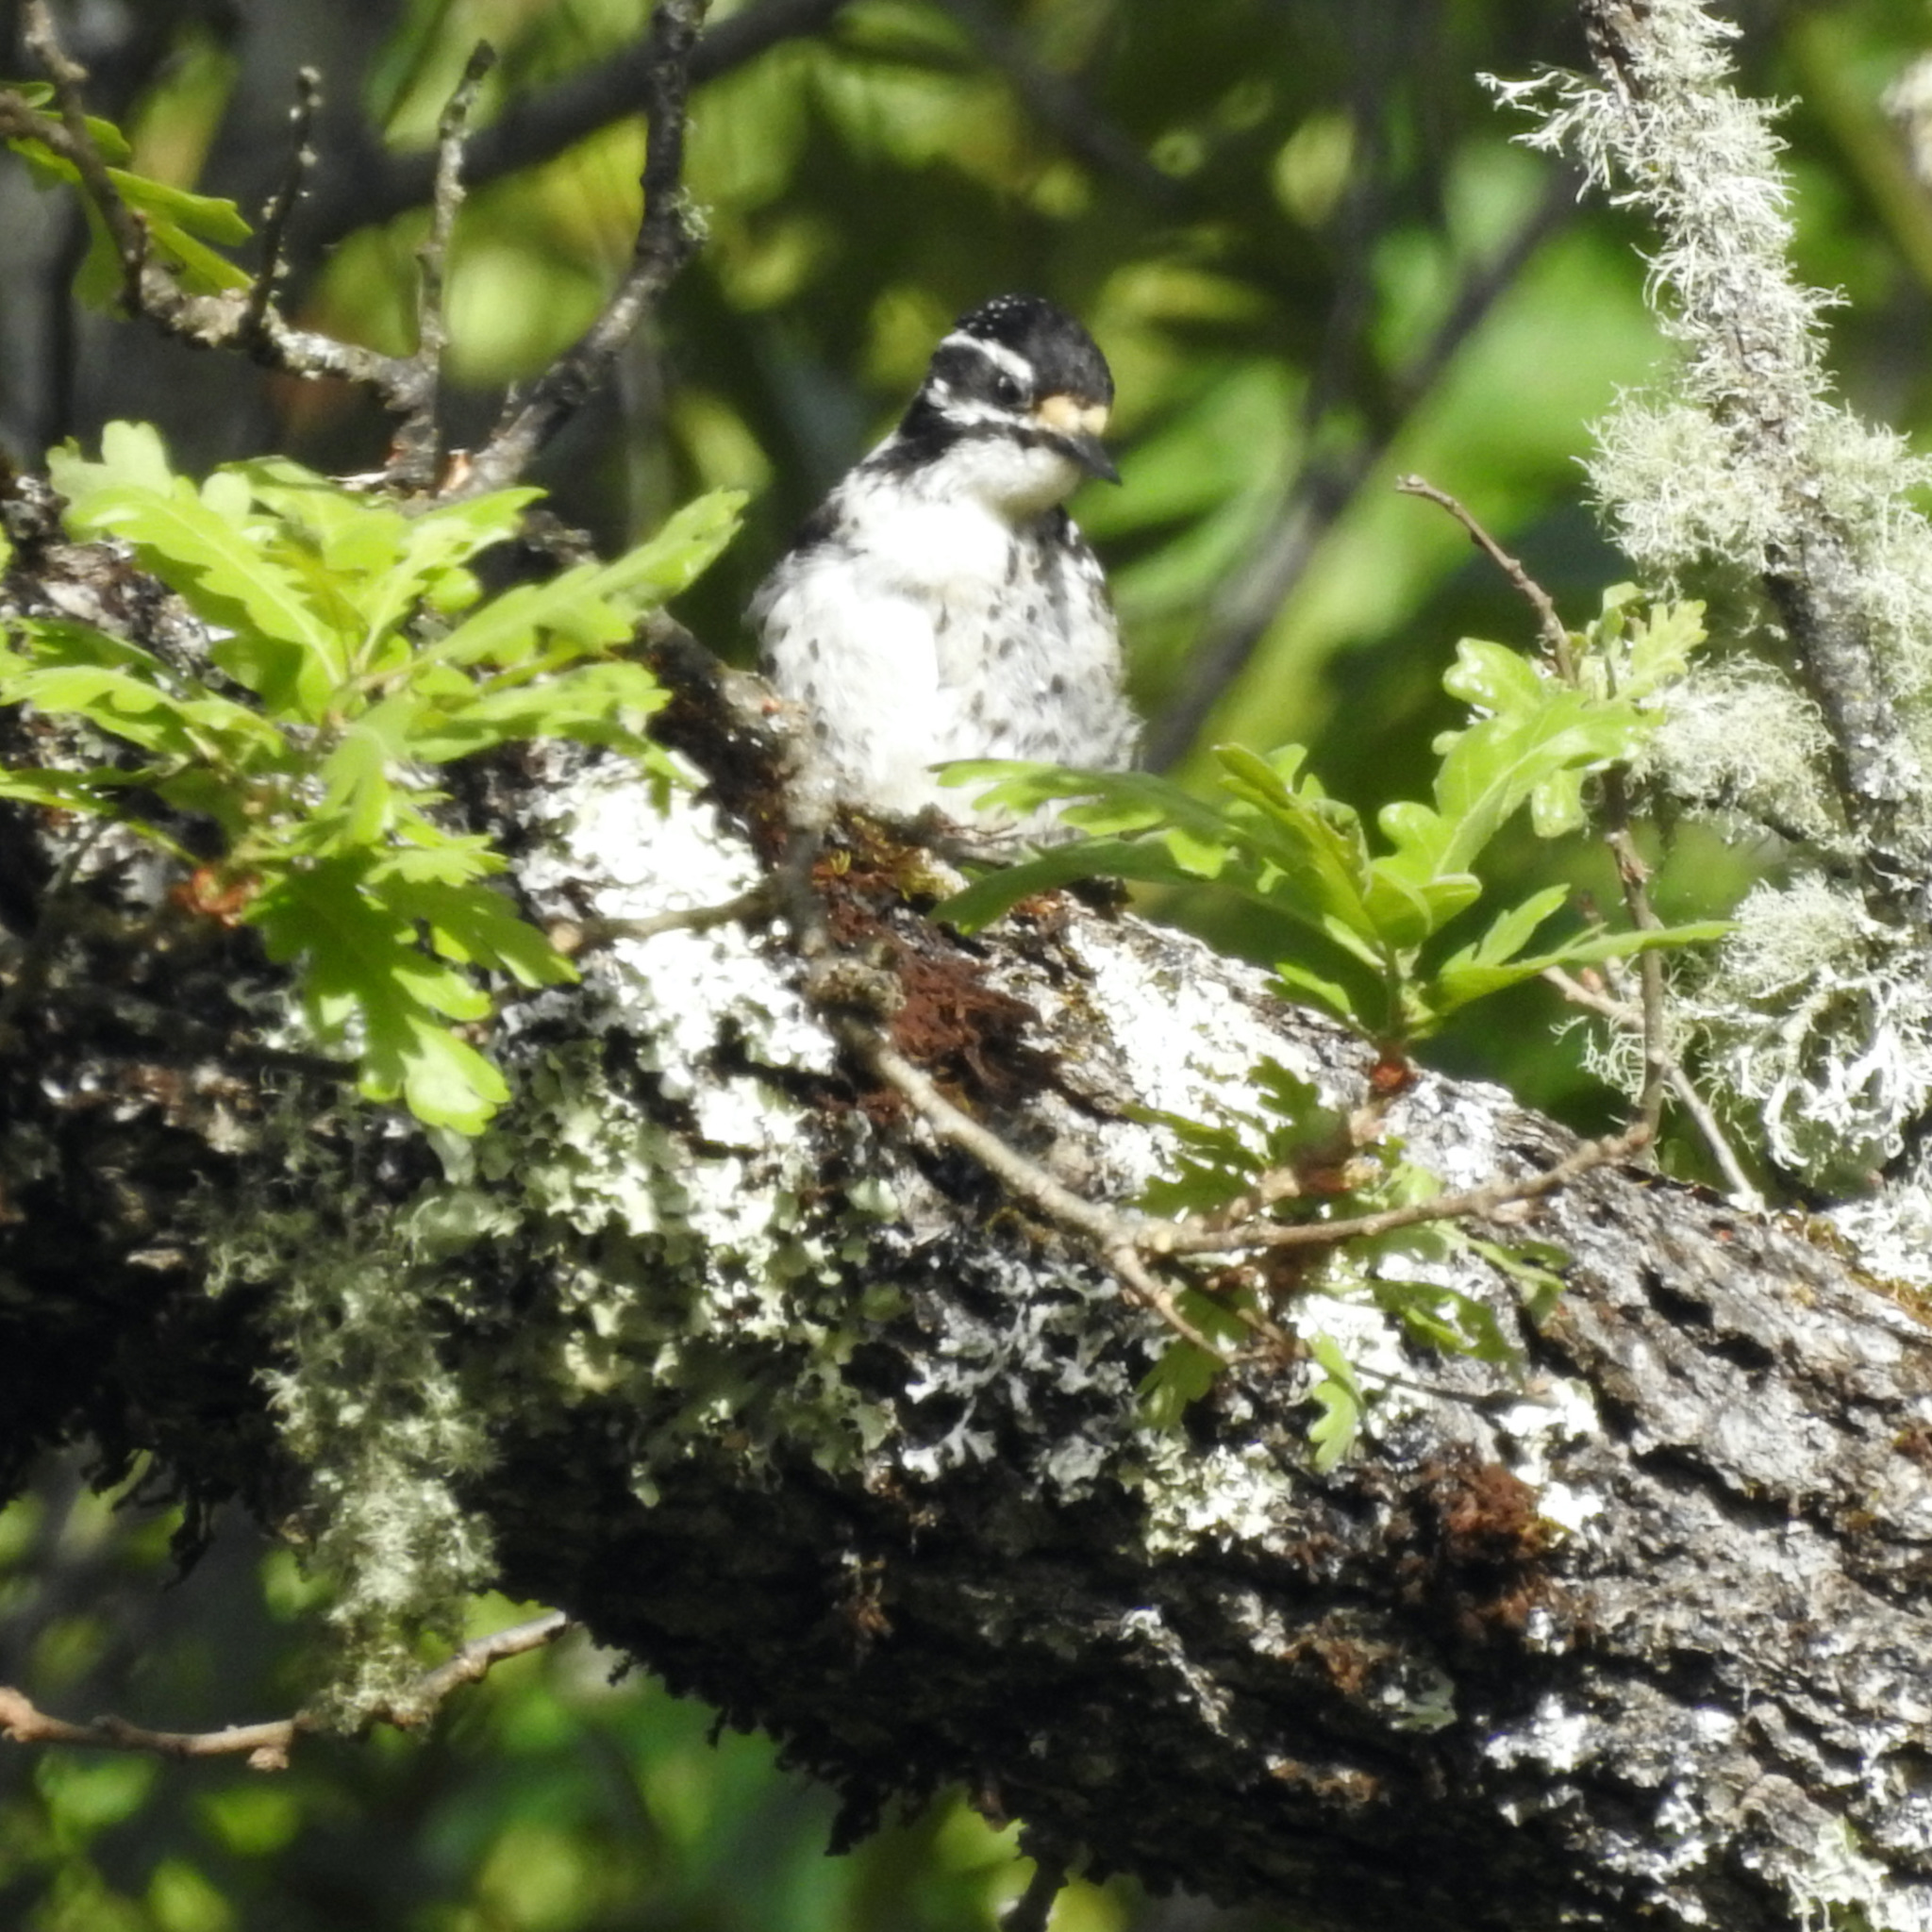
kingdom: Animalia
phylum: Chordata
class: Aves
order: Piciformes
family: Picidae
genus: Dryobates
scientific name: Dryobates nuttallii
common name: Nuttall's woodpecker
